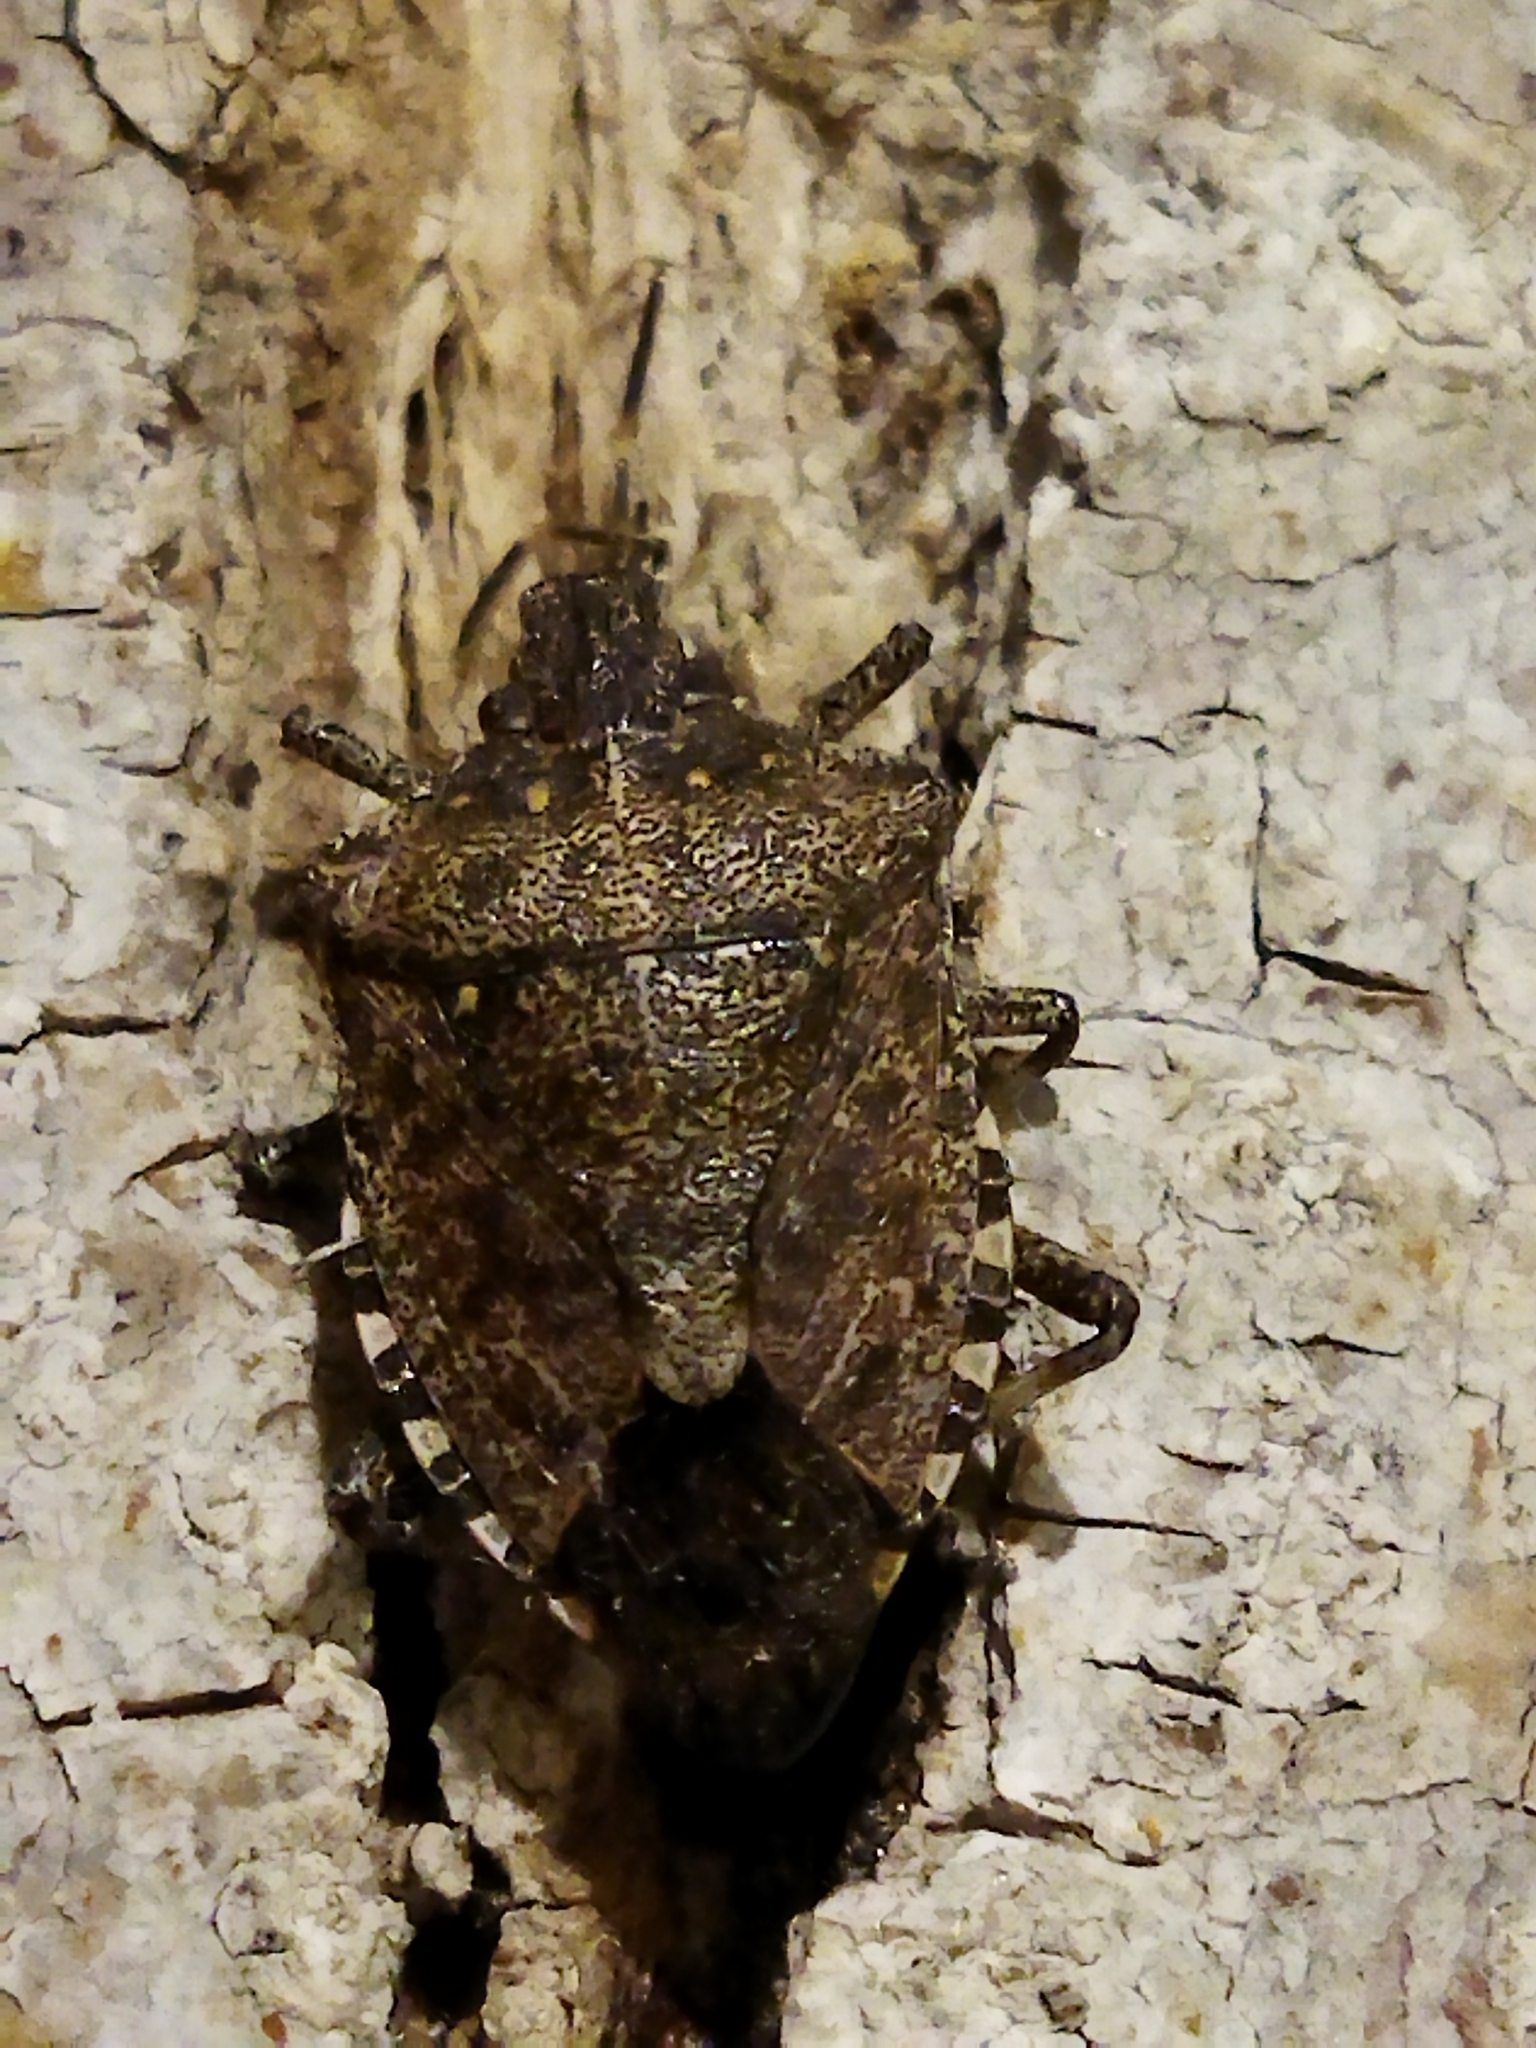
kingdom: Animalia
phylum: Arthropoda
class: Insecta
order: Hemiptera
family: Pentatomidae
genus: Halyomorpha
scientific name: Halyomorpha halys
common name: Brown marmorated stink bug
